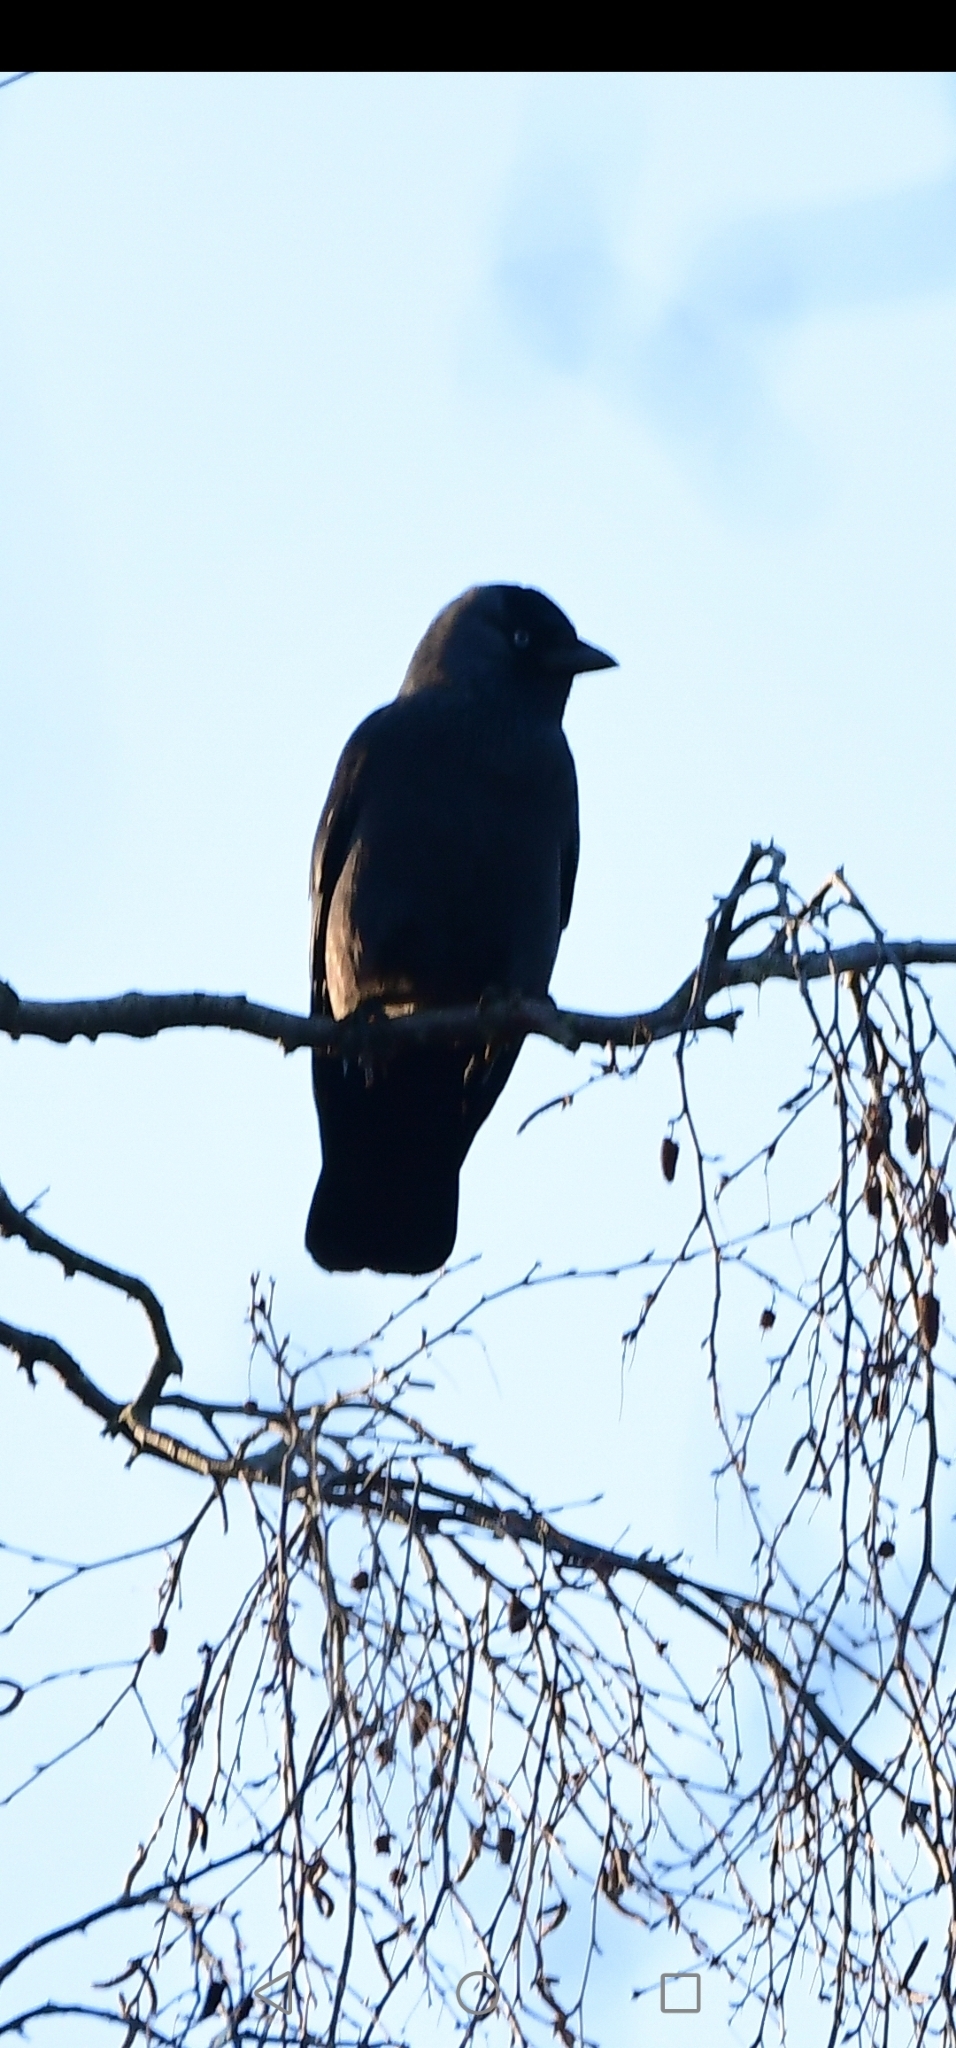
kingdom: Animalia
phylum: Chordata
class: Aves
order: Passeriformes
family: Corvidae
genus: Coloeus
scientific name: Coloeus monedula
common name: Western jackdaw
